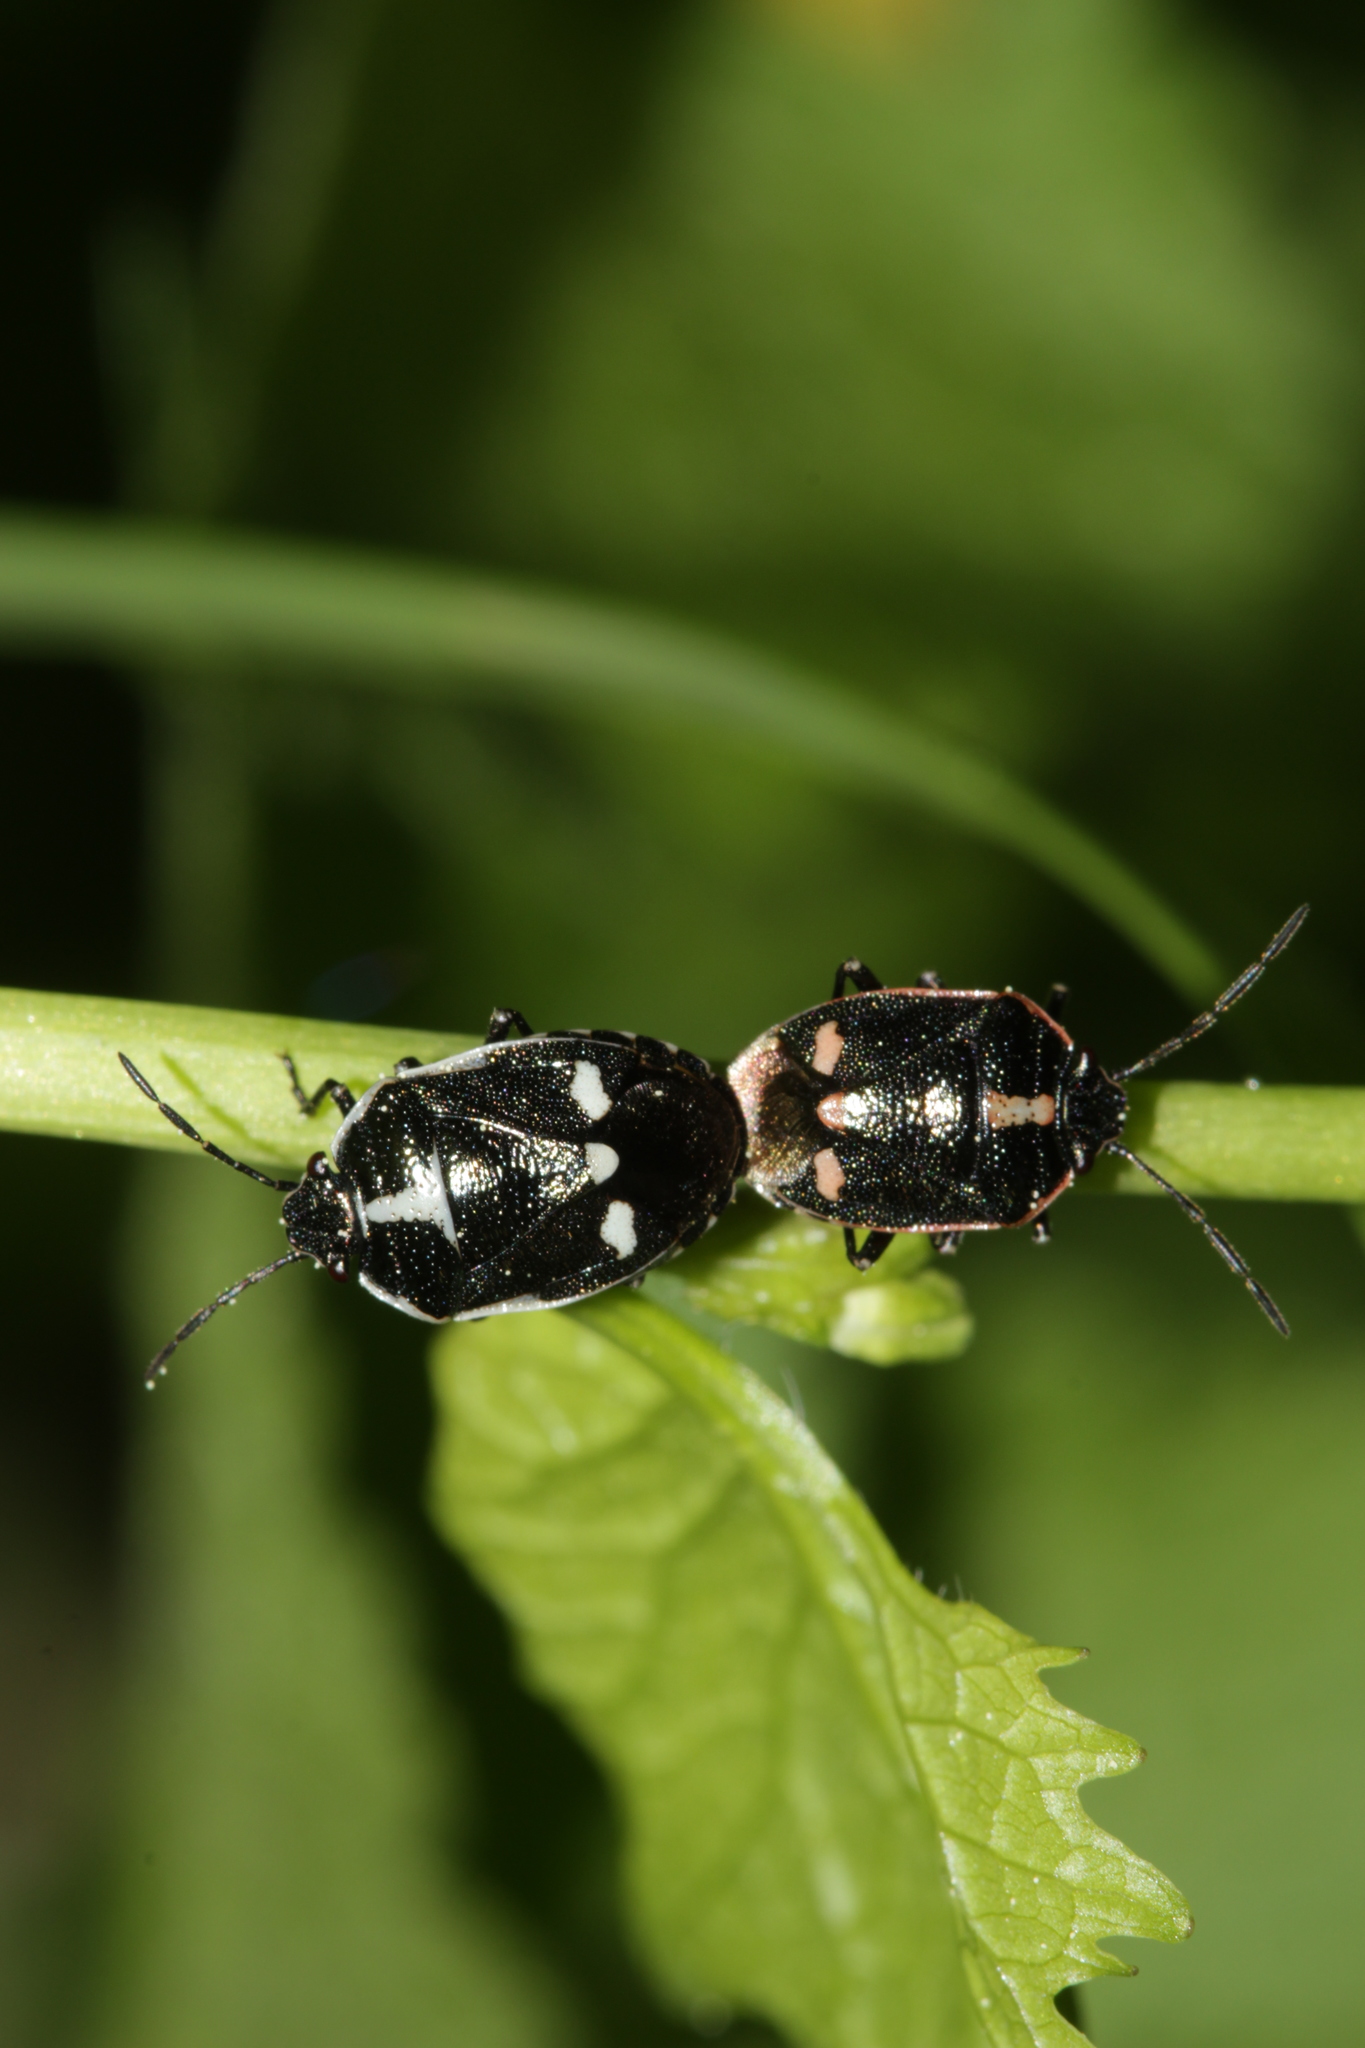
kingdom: Animalia
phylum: Arthropoda
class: Insecta
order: Hemiptera
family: Pentatomidae
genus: Eurydema
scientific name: Eurydema oleracea
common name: Cabbage bug
